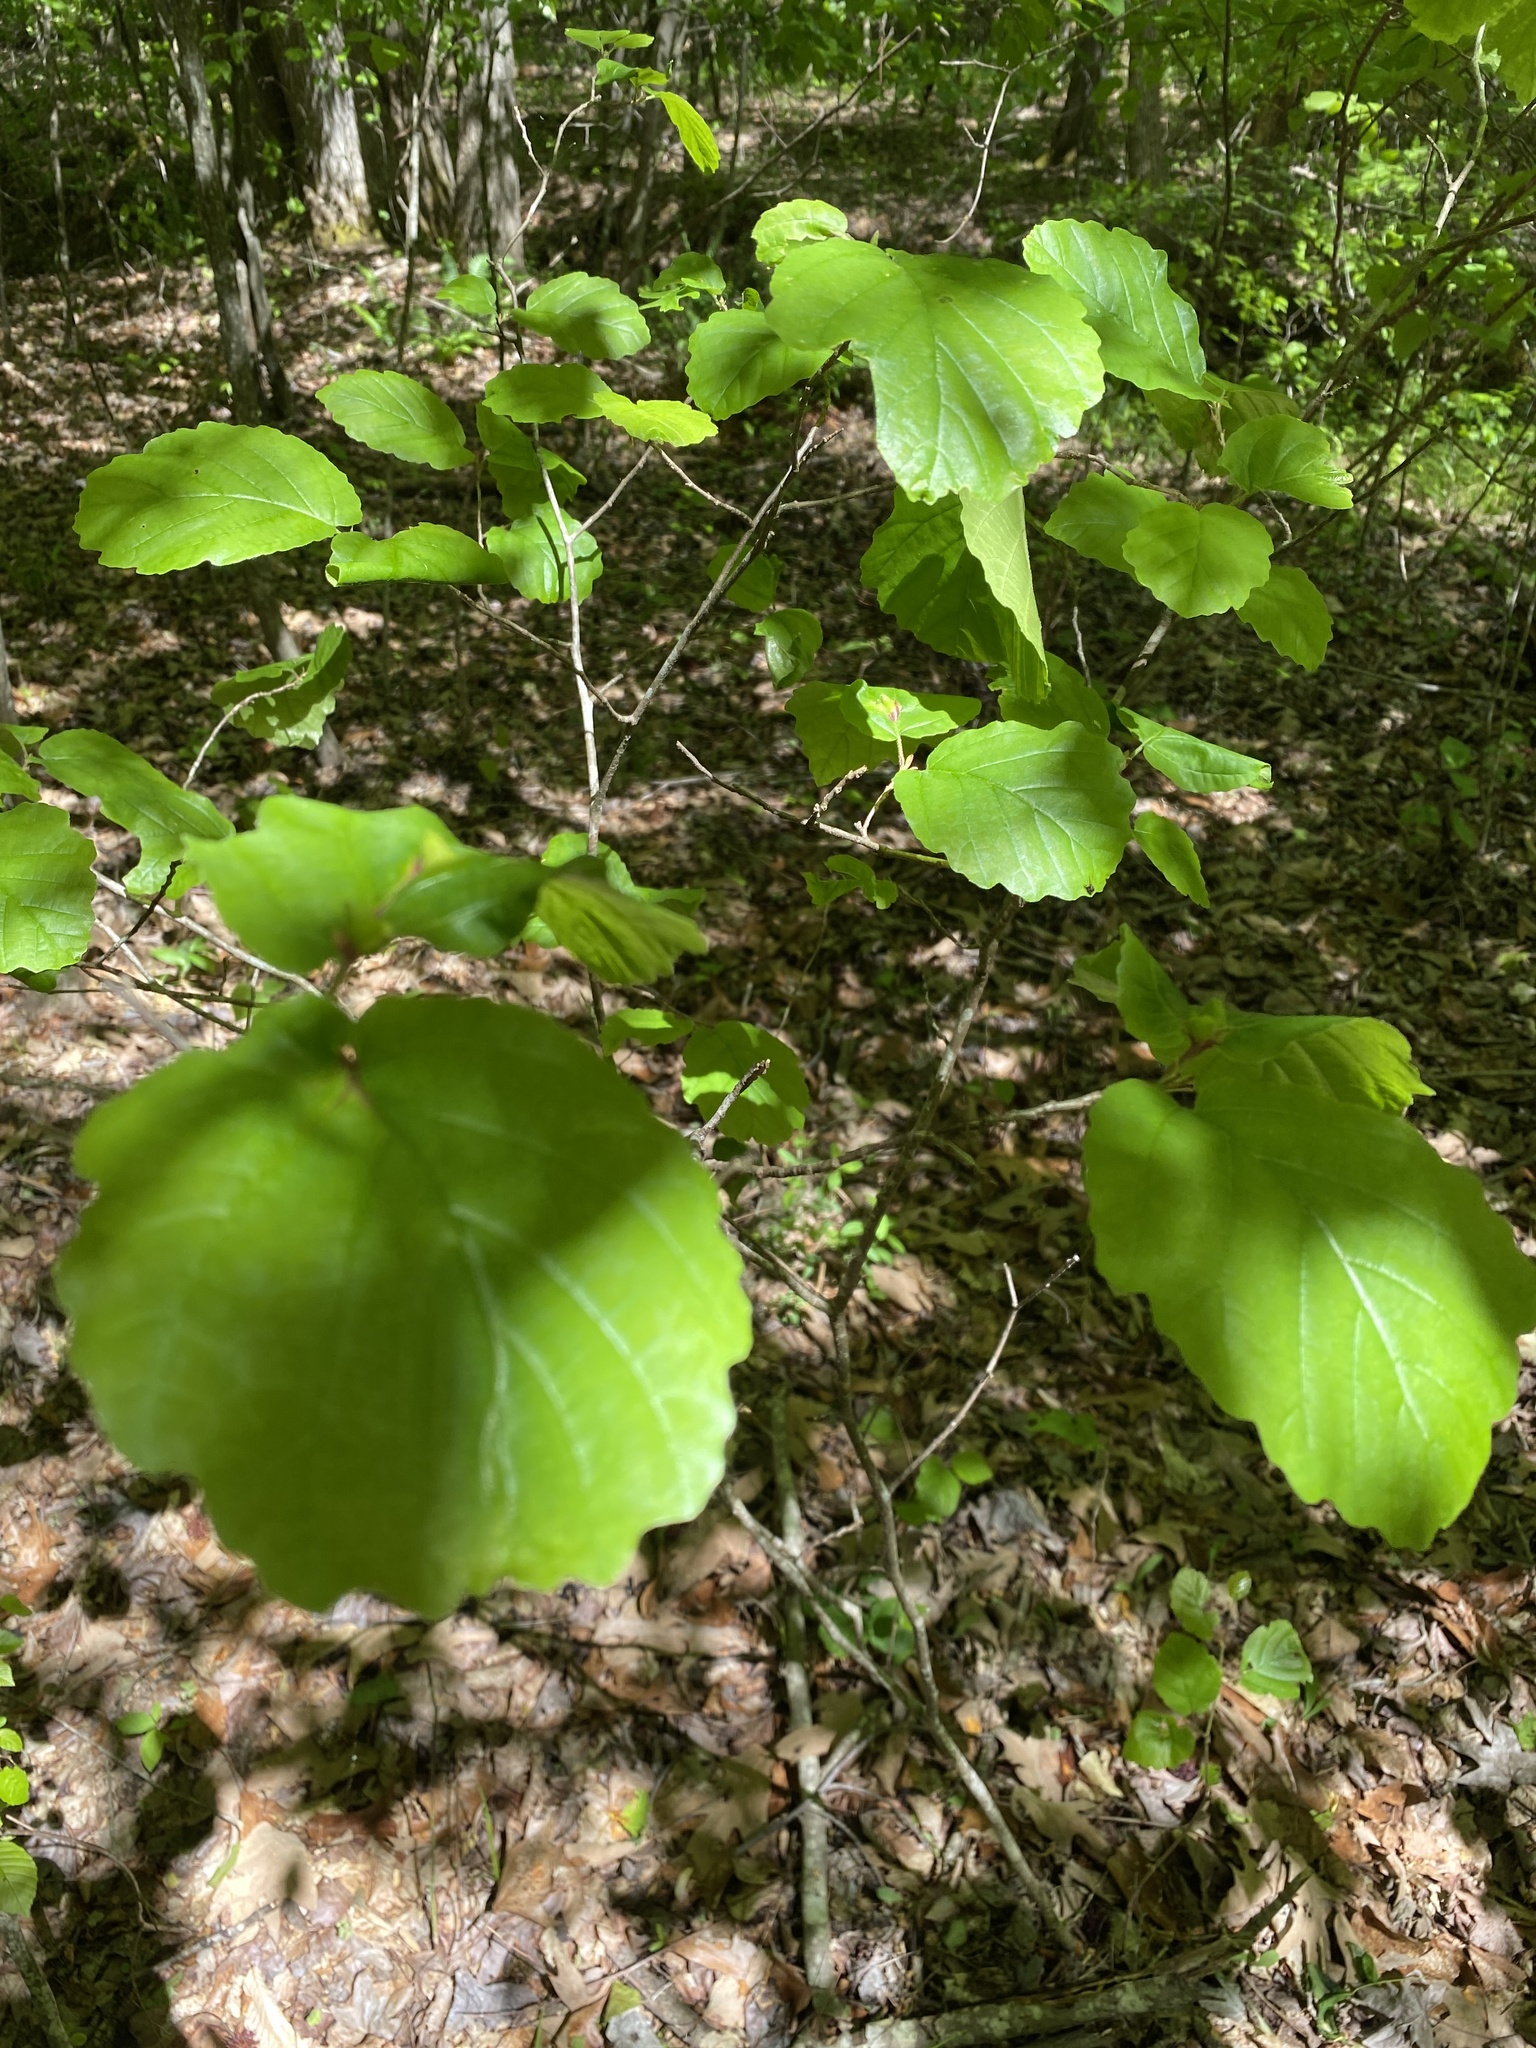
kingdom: Plantae
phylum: Tracheophyta
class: Magnoliopsida
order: Saxifragales
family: Hamamelidaceae
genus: Hamamelis
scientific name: Hamamelis virginiana
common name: Witch-hazel
